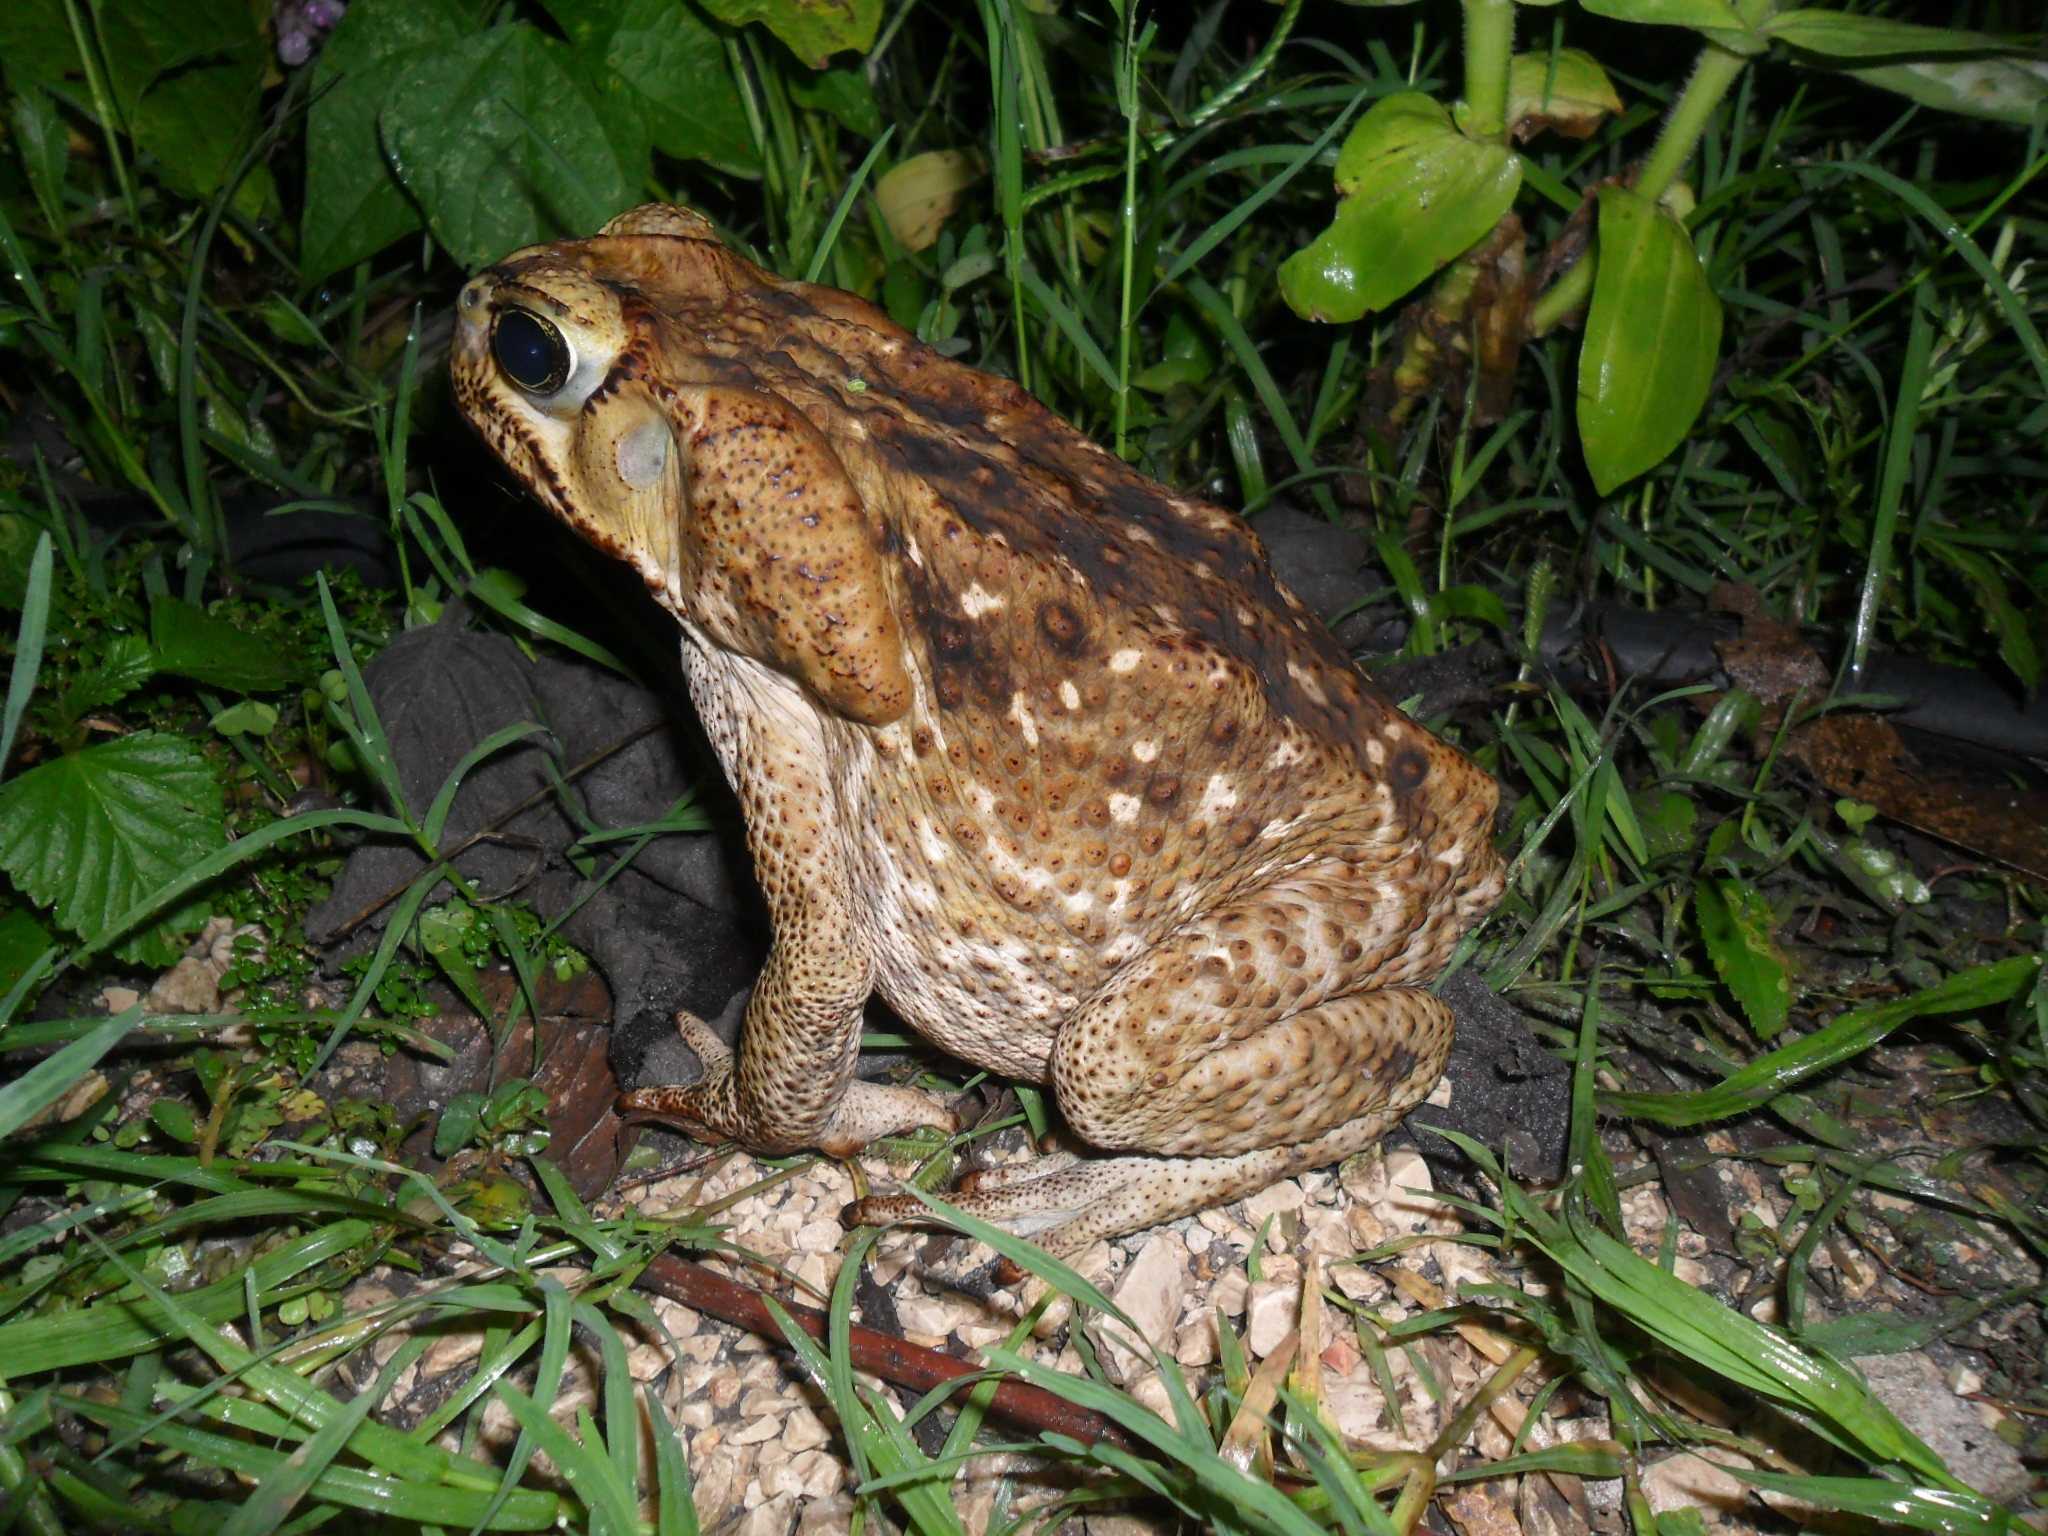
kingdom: Animalia
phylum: Chordata
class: Amphibia
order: Anura
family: Bufonidae
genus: Rhinella
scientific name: Rhinella horribilis
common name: Mesoamerican cane toad
